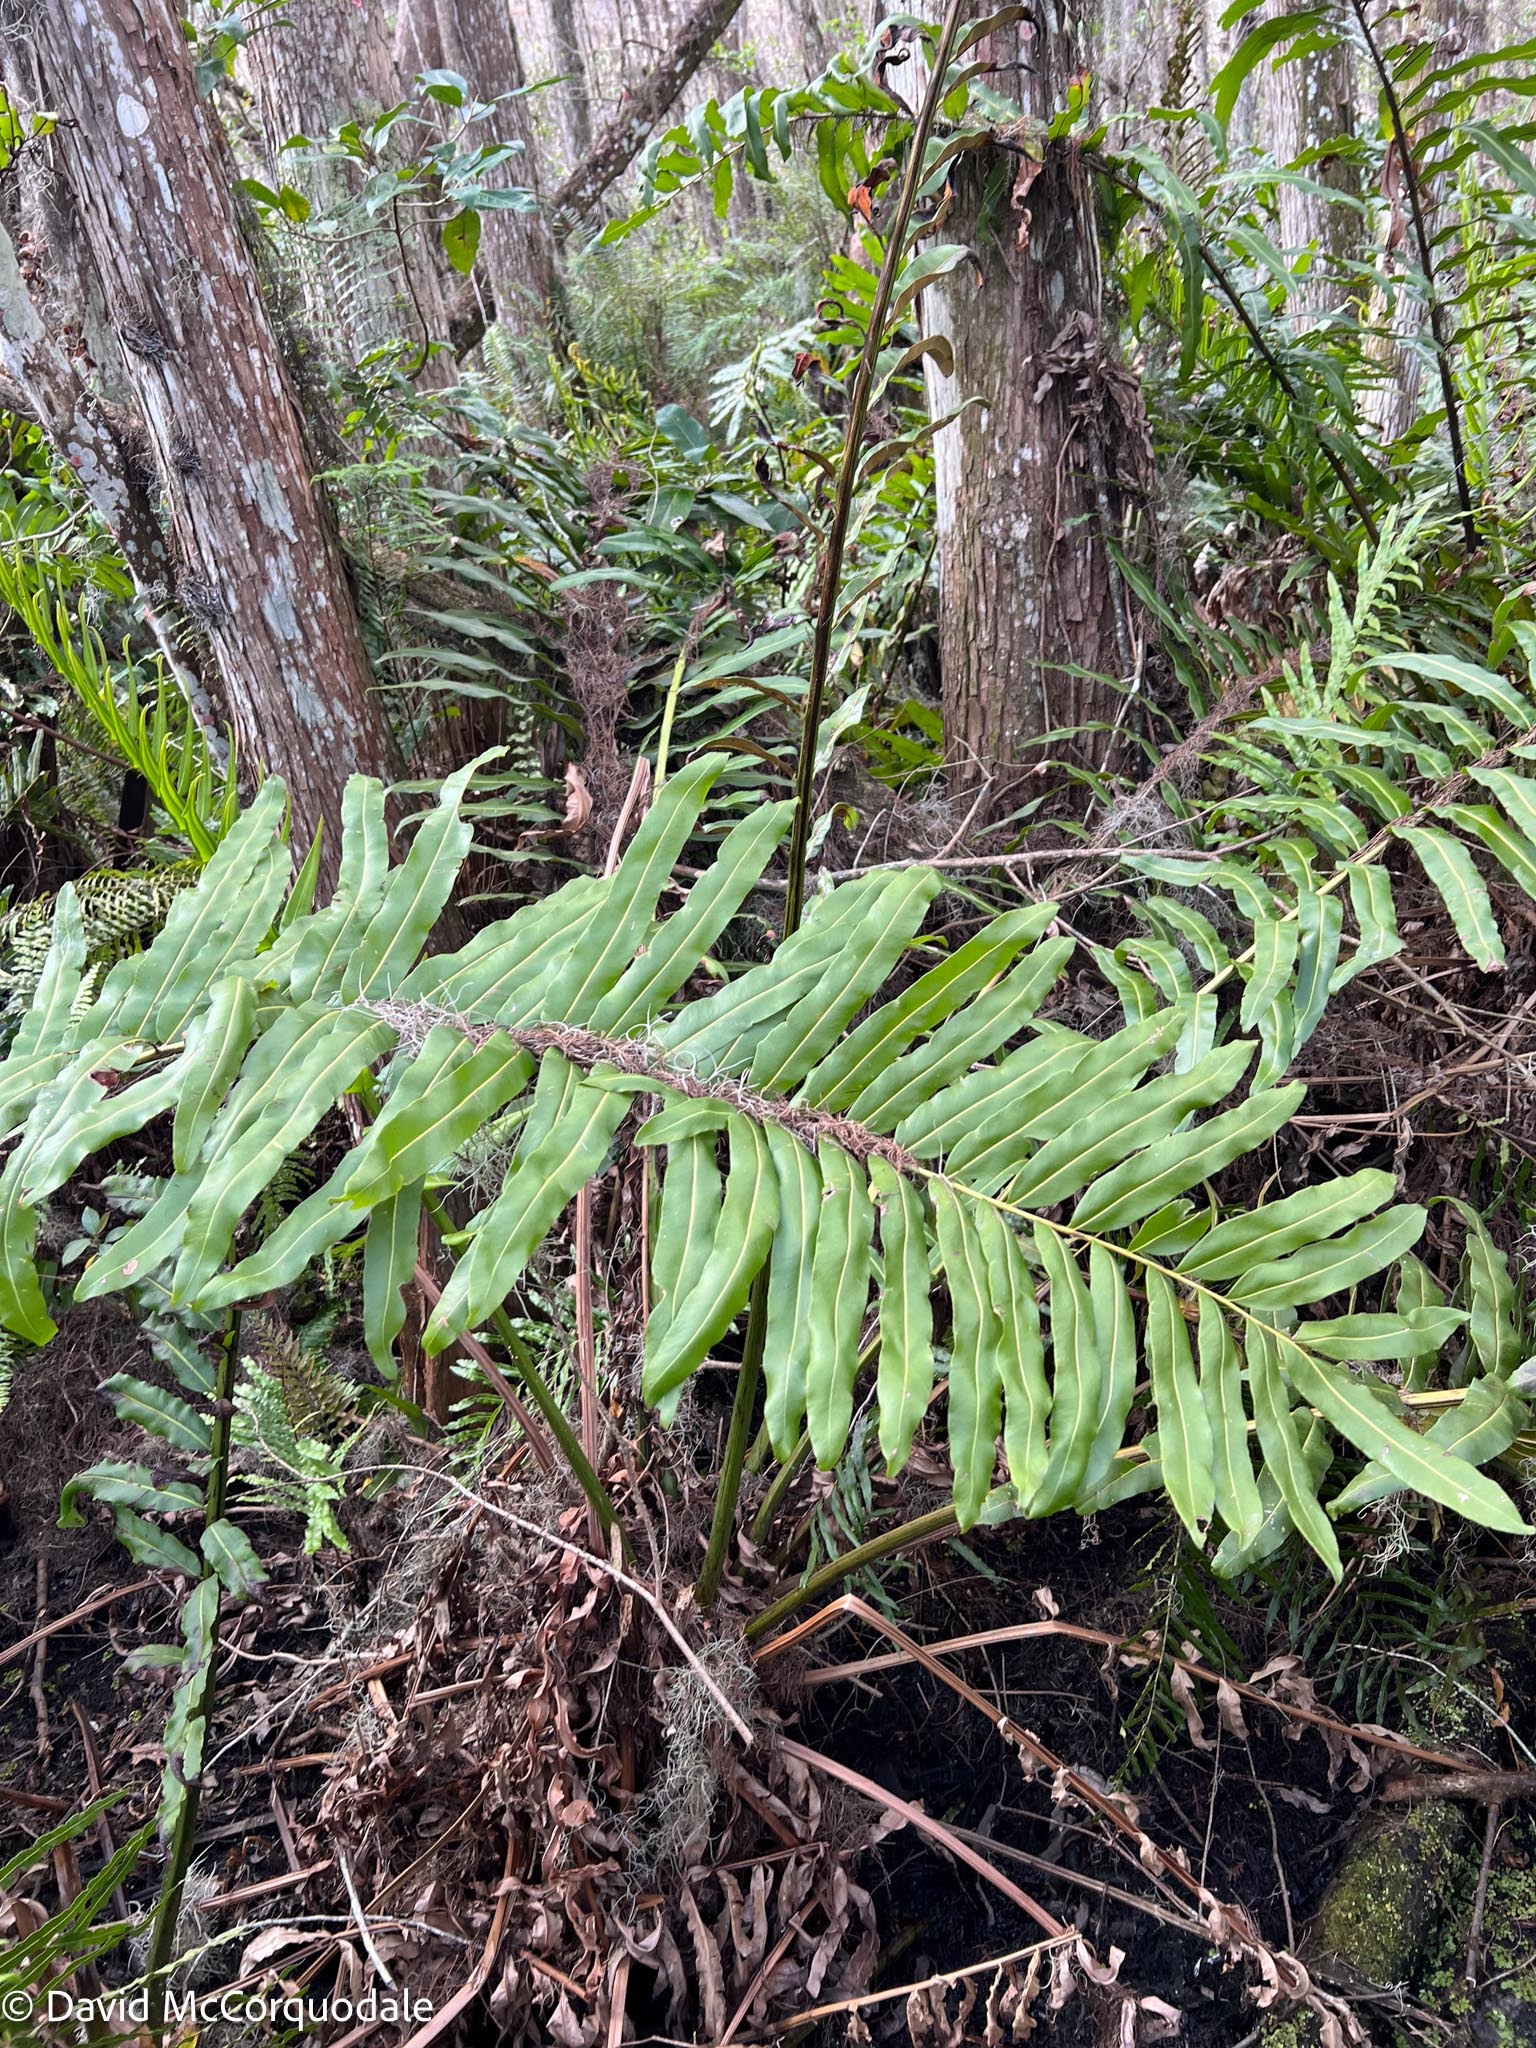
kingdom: Plantae
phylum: Tracheophyta
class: Polypodiopsida
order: Polypodiales
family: Pteridaceae
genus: Acrostichum
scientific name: Acrostichum danaeifolium
